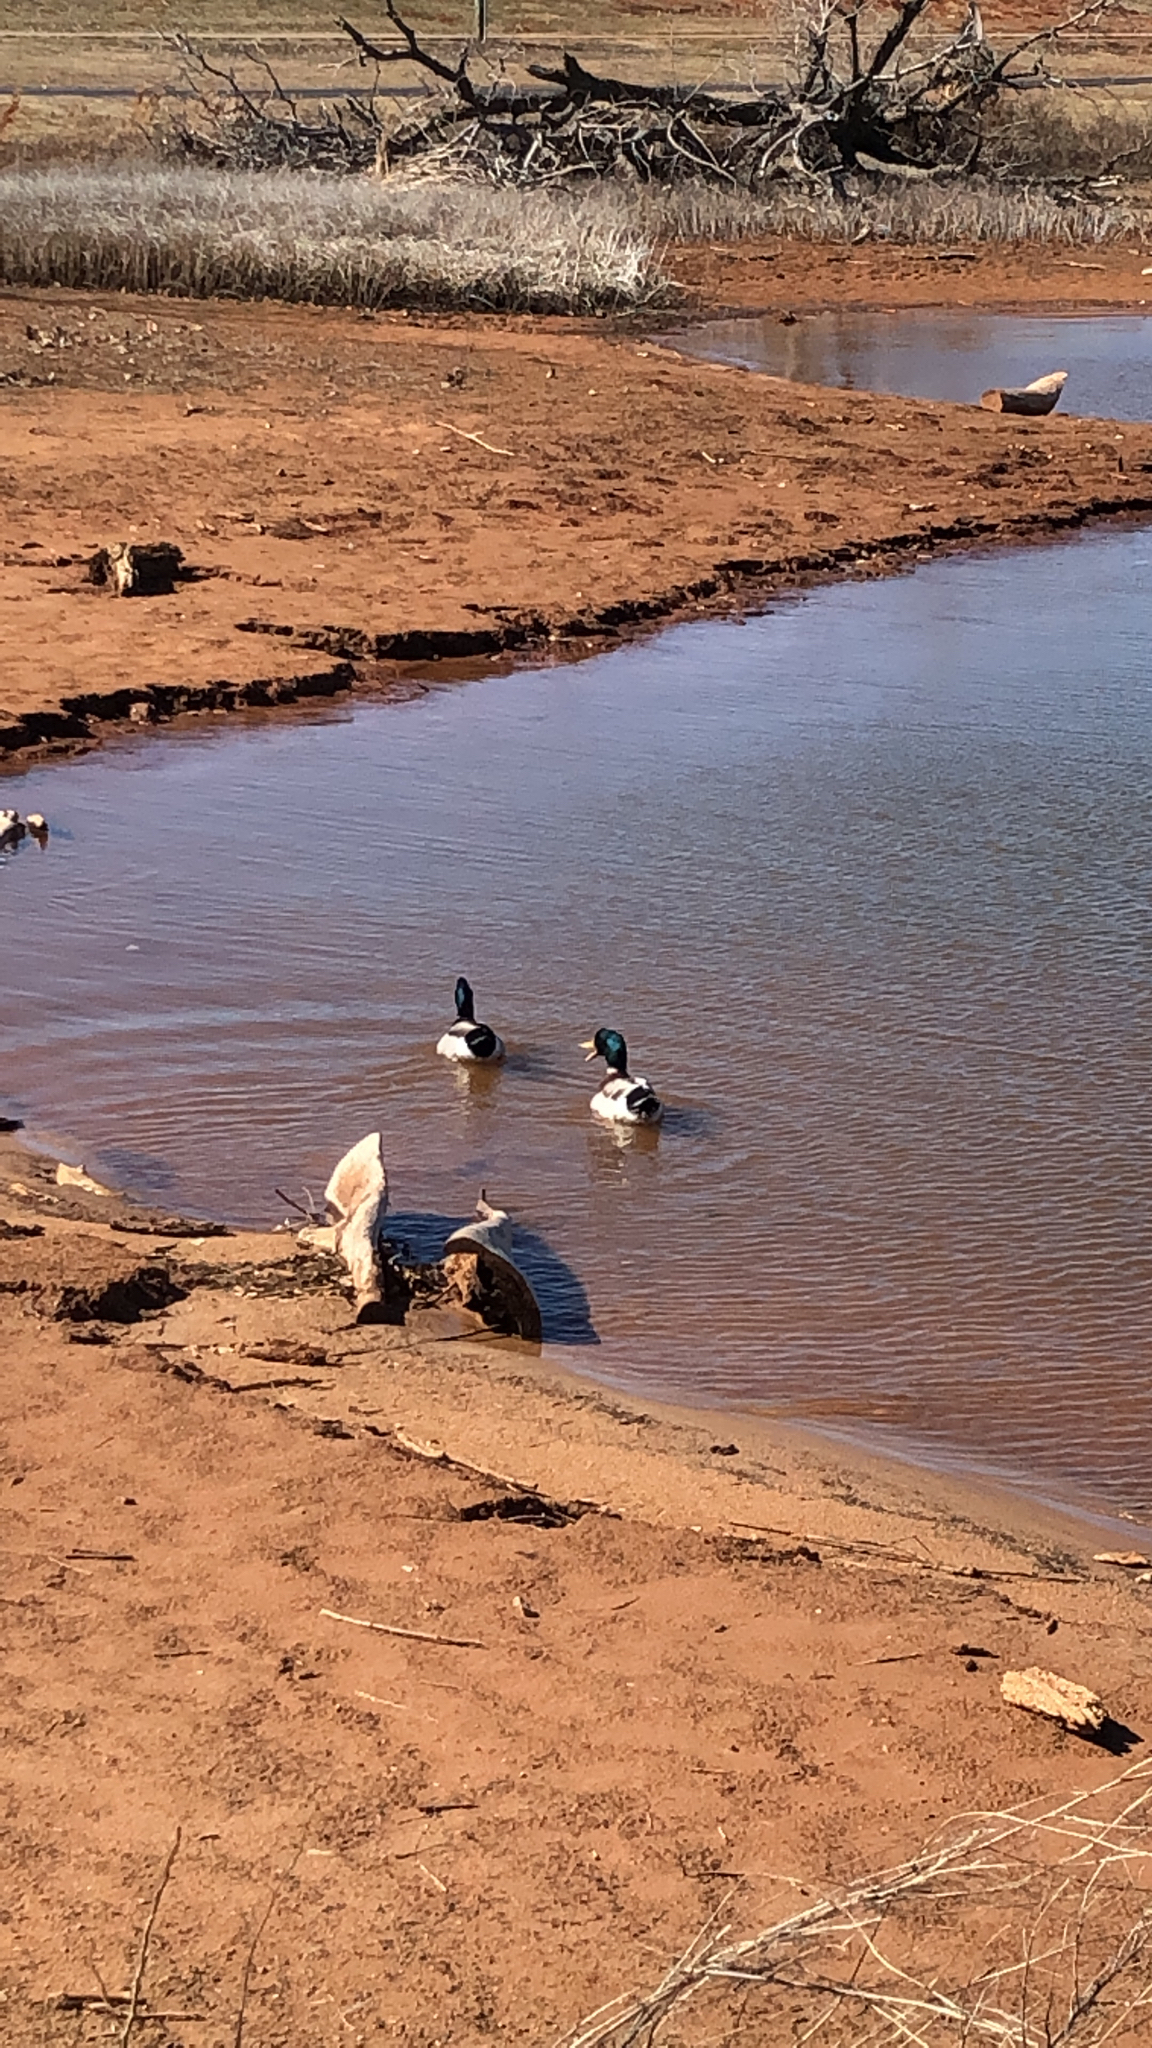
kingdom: Animalia
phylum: Chordata
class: Aves
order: Anseriformes
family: Anatidae
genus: Anas
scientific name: Anas platyrhynchos
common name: Mallard
